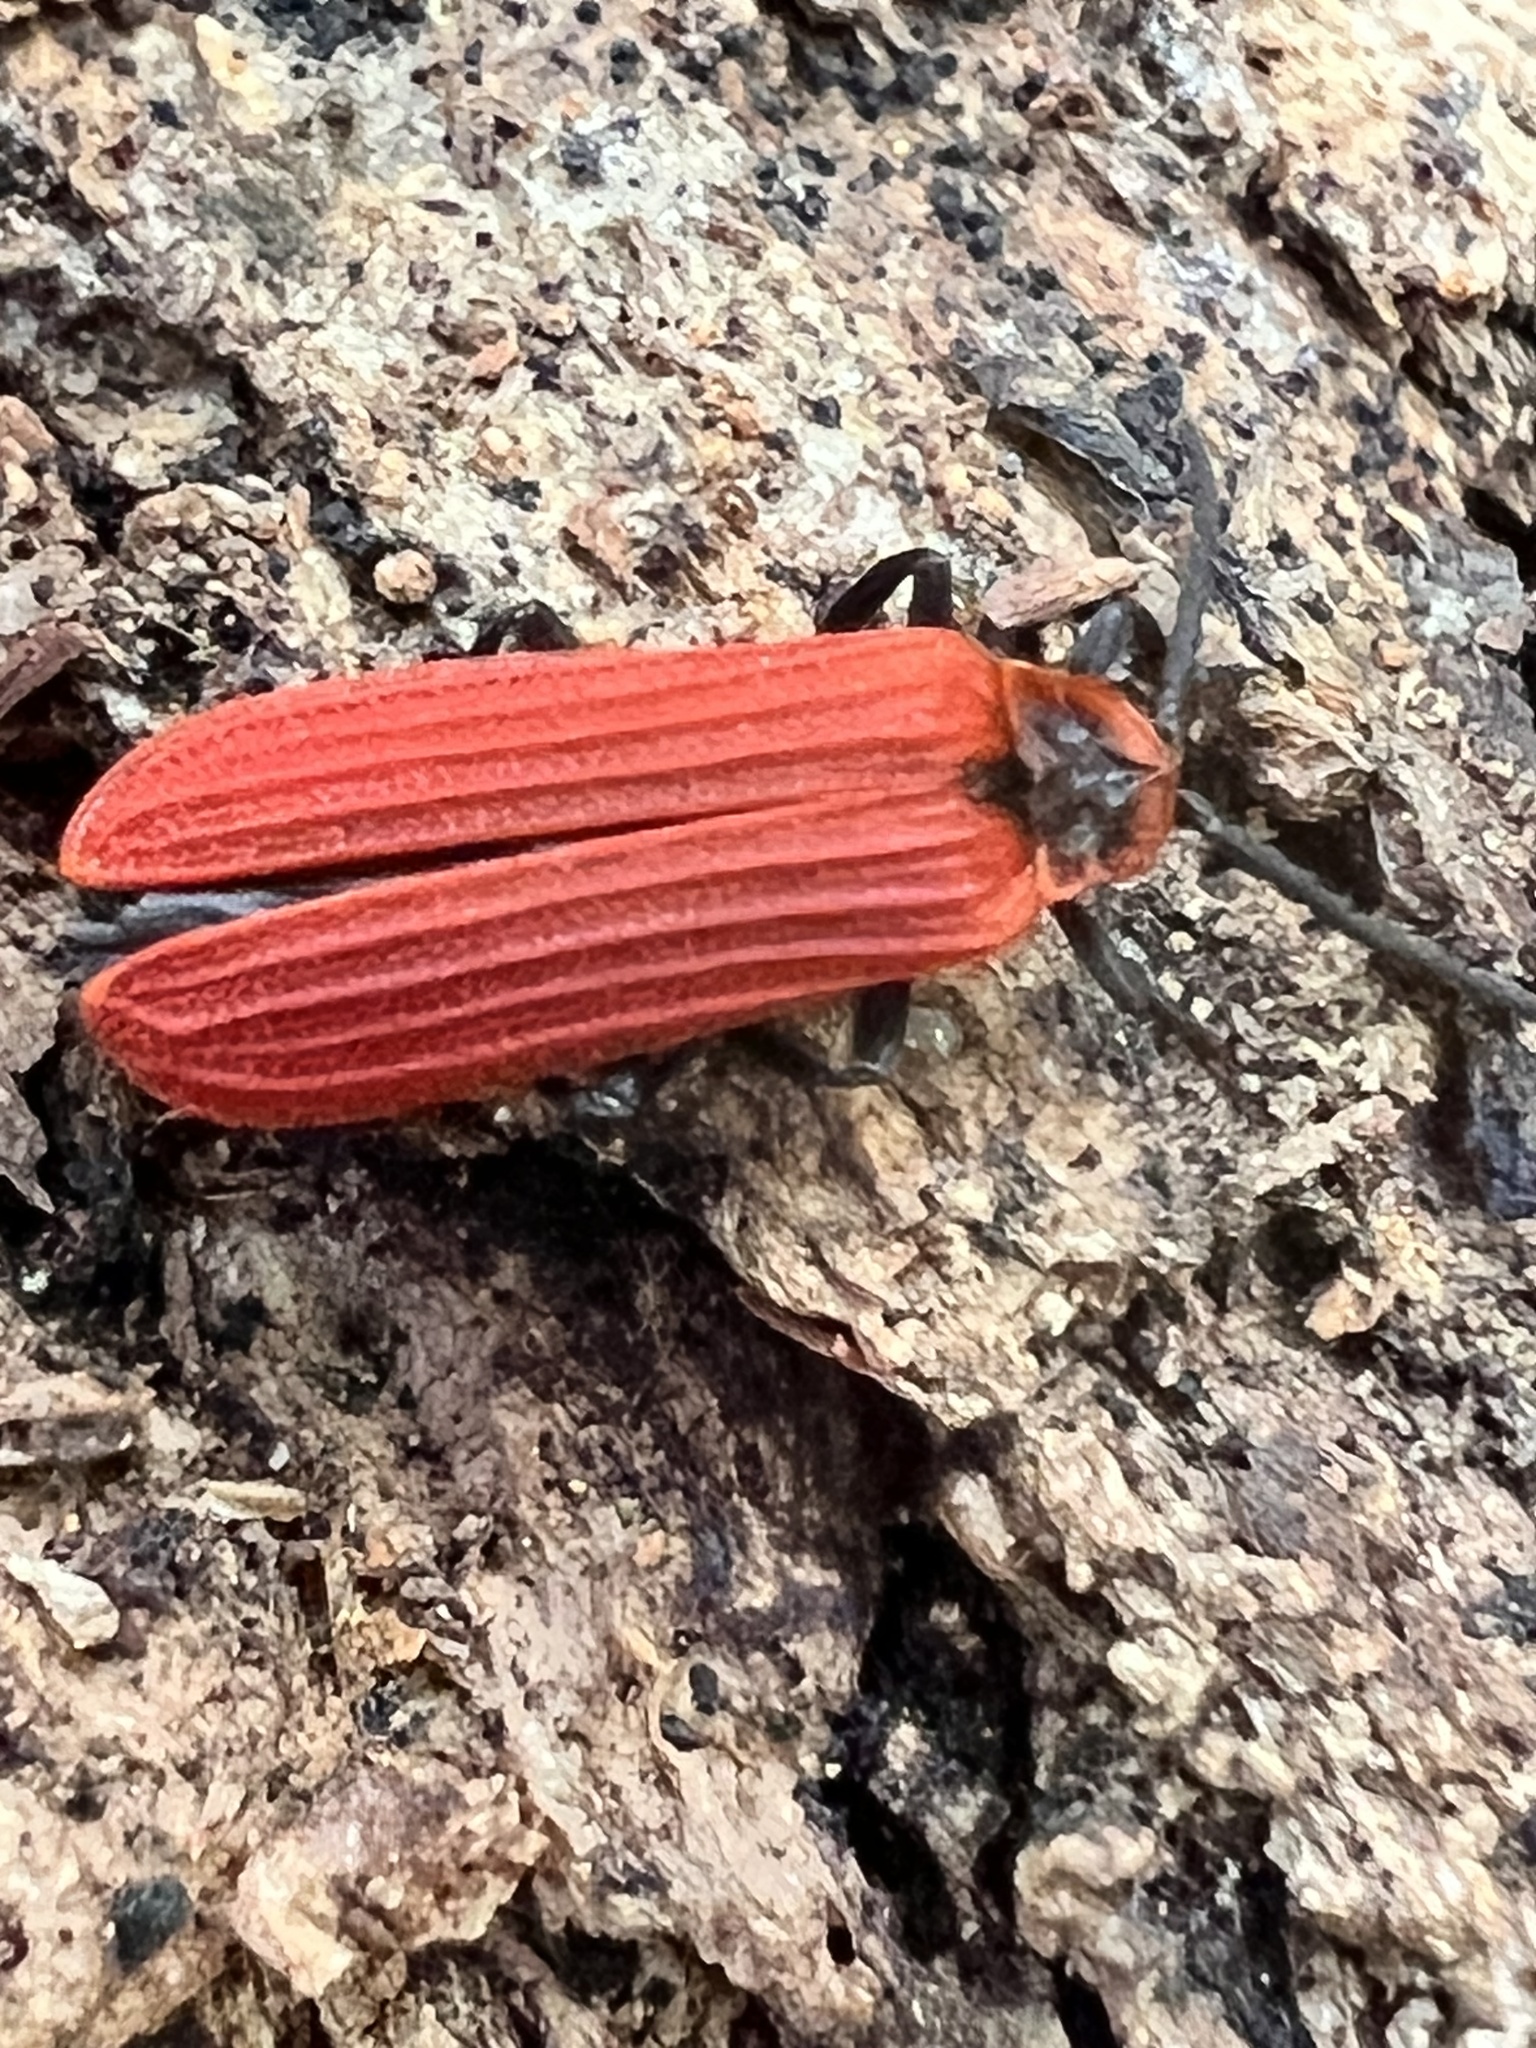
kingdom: Animalia
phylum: Arthropoda
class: Insecta
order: Coleoptera
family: Lycidae
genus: Dictyoptera
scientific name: Dictyoptera aurora
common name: Golden net-winged beetle
